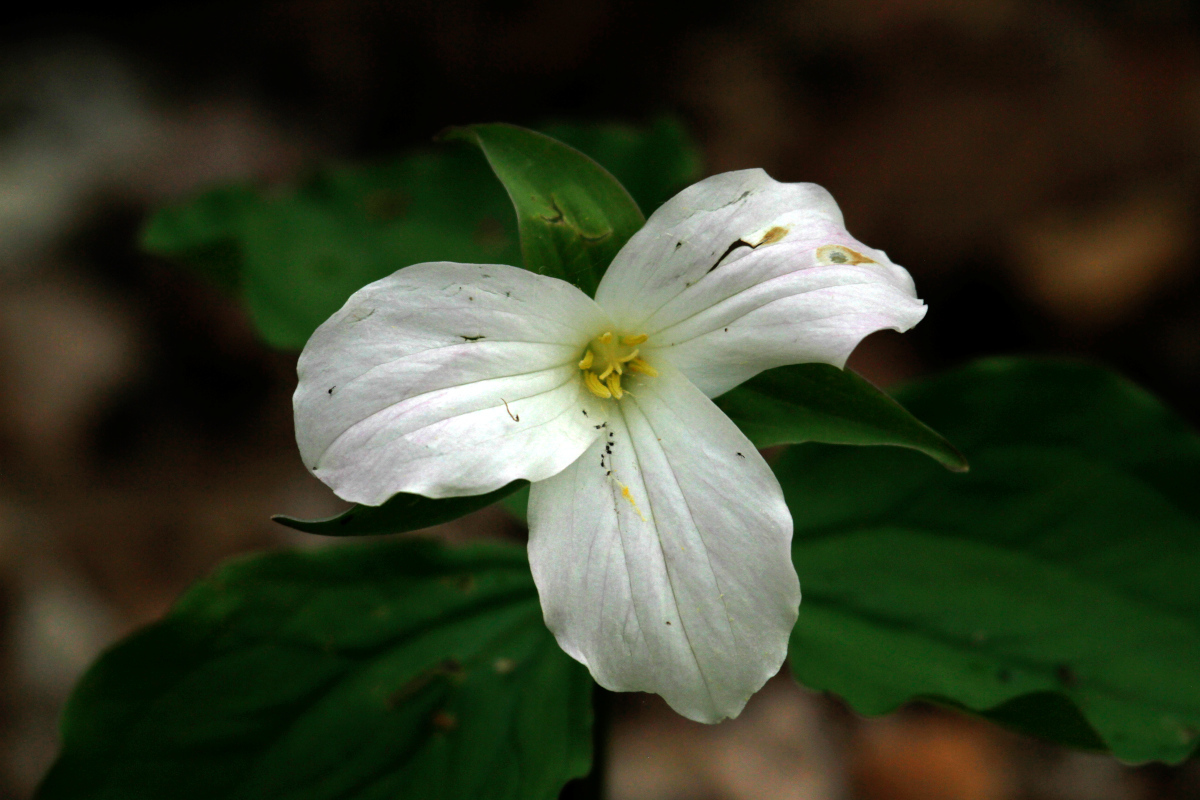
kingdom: Plantae
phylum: Tracheophyta
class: Liliopsida
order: Liliales
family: Melanthiaceae
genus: Trillium
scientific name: Trillium grandiflorum
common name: Great white trillium
